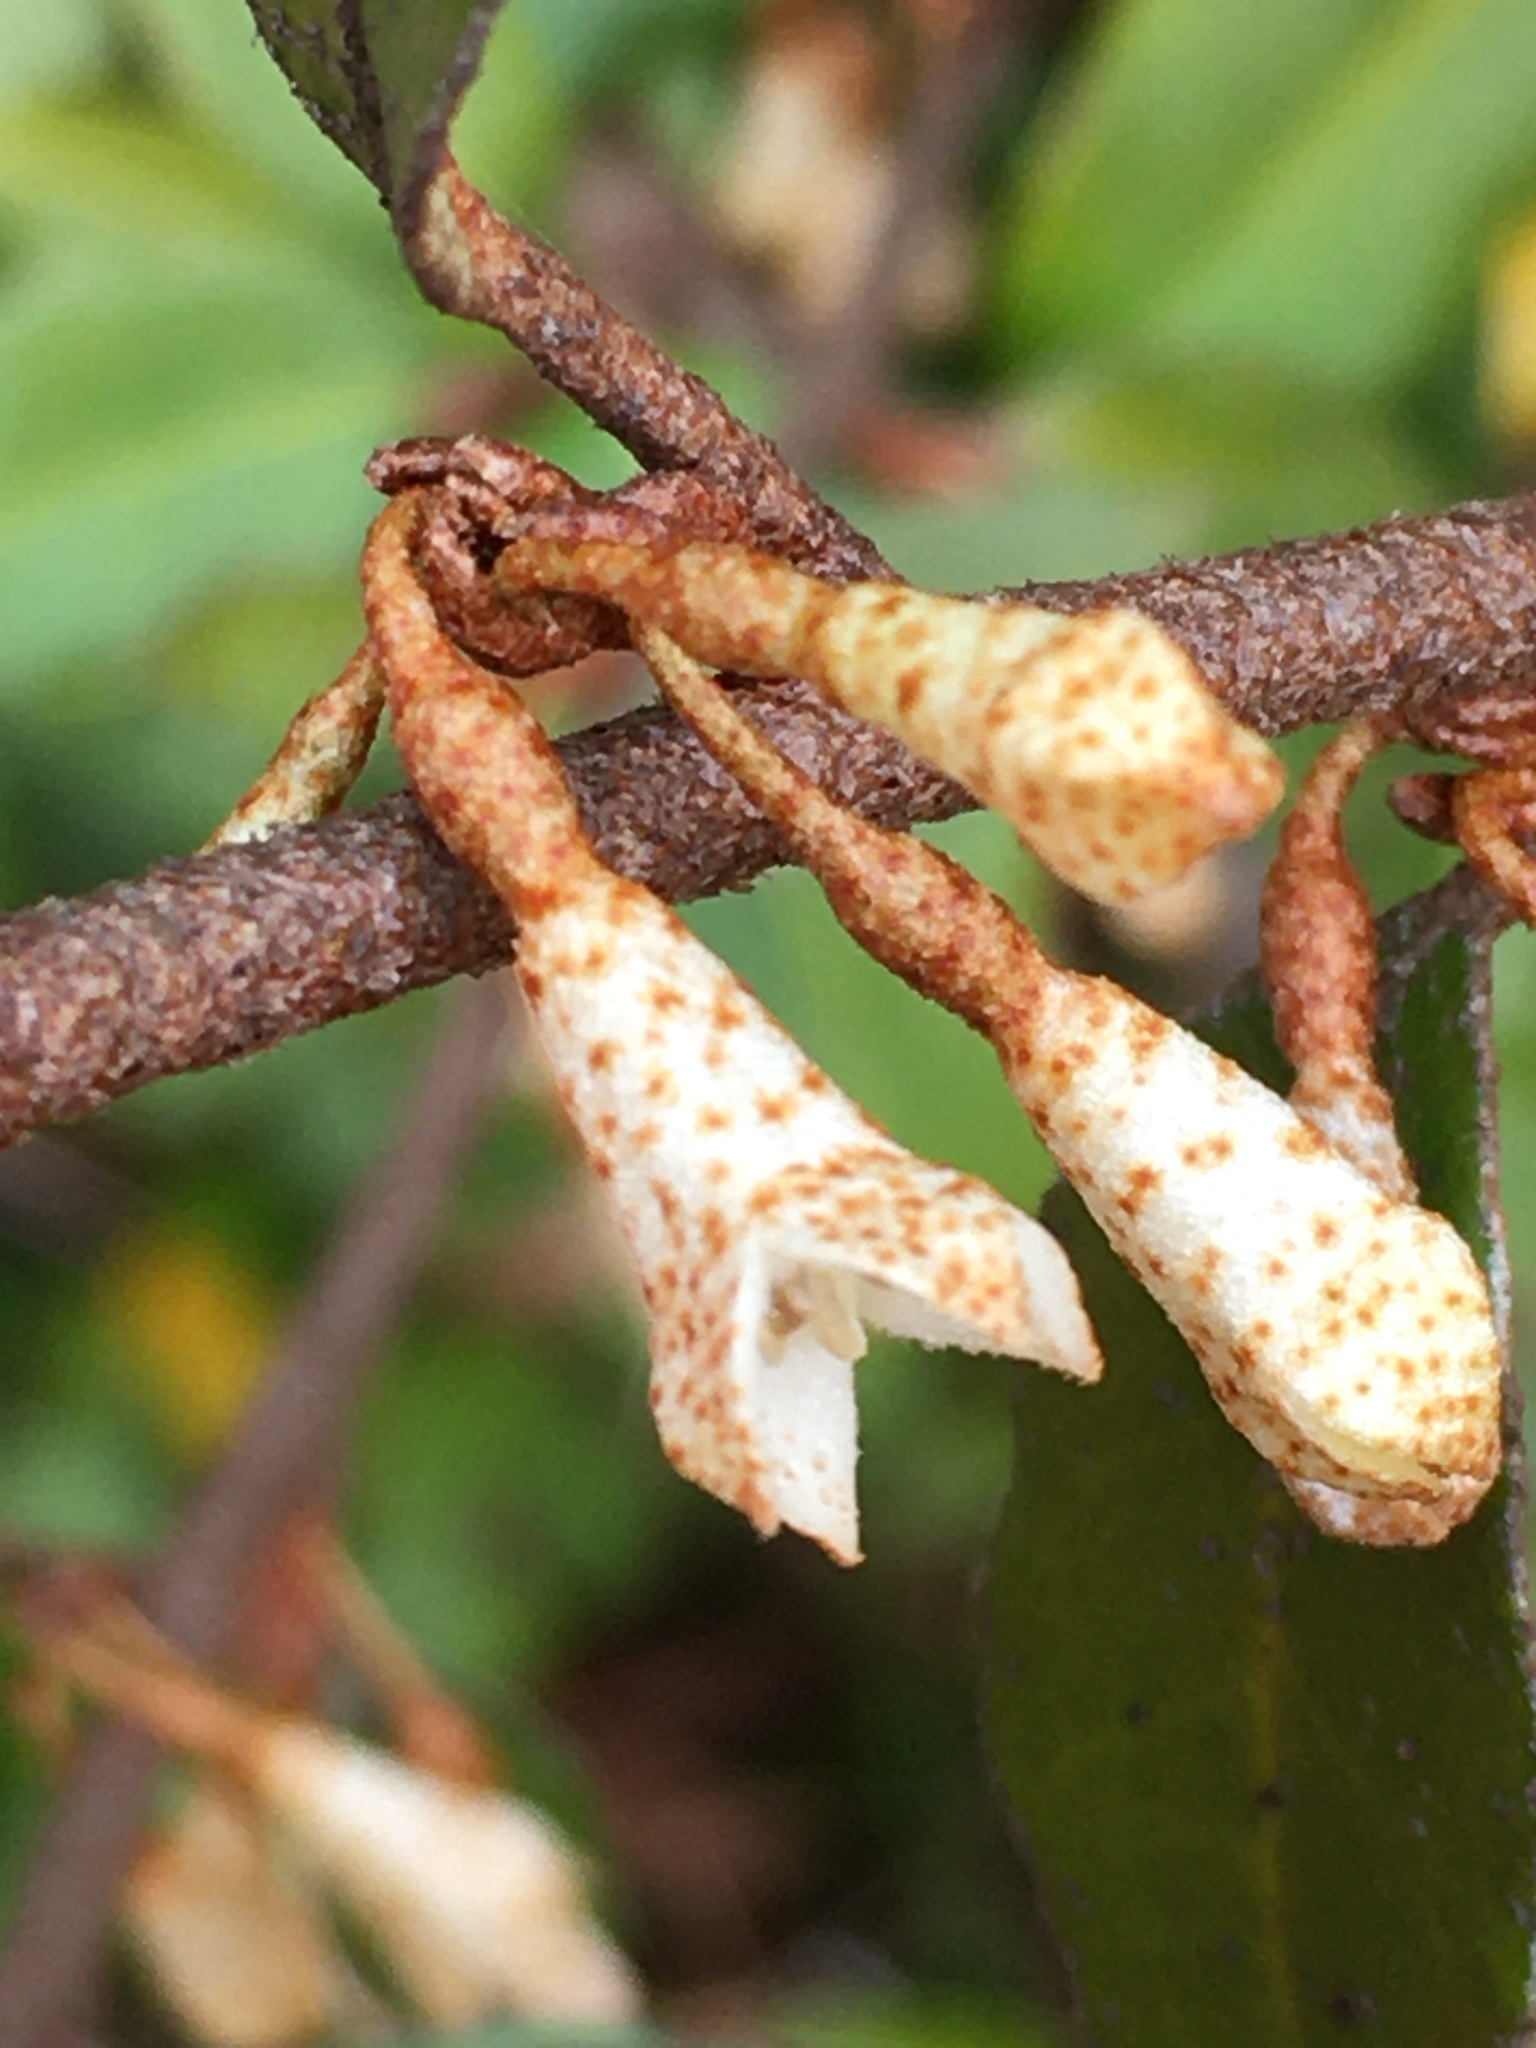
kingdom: Plantae
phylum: Tracheophyta
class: Magnoliopsida
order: Rosales
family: Elaeagnaceae
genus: Elaeagnus
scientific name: Elaeagnus pungens
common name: Spiny oleaster
